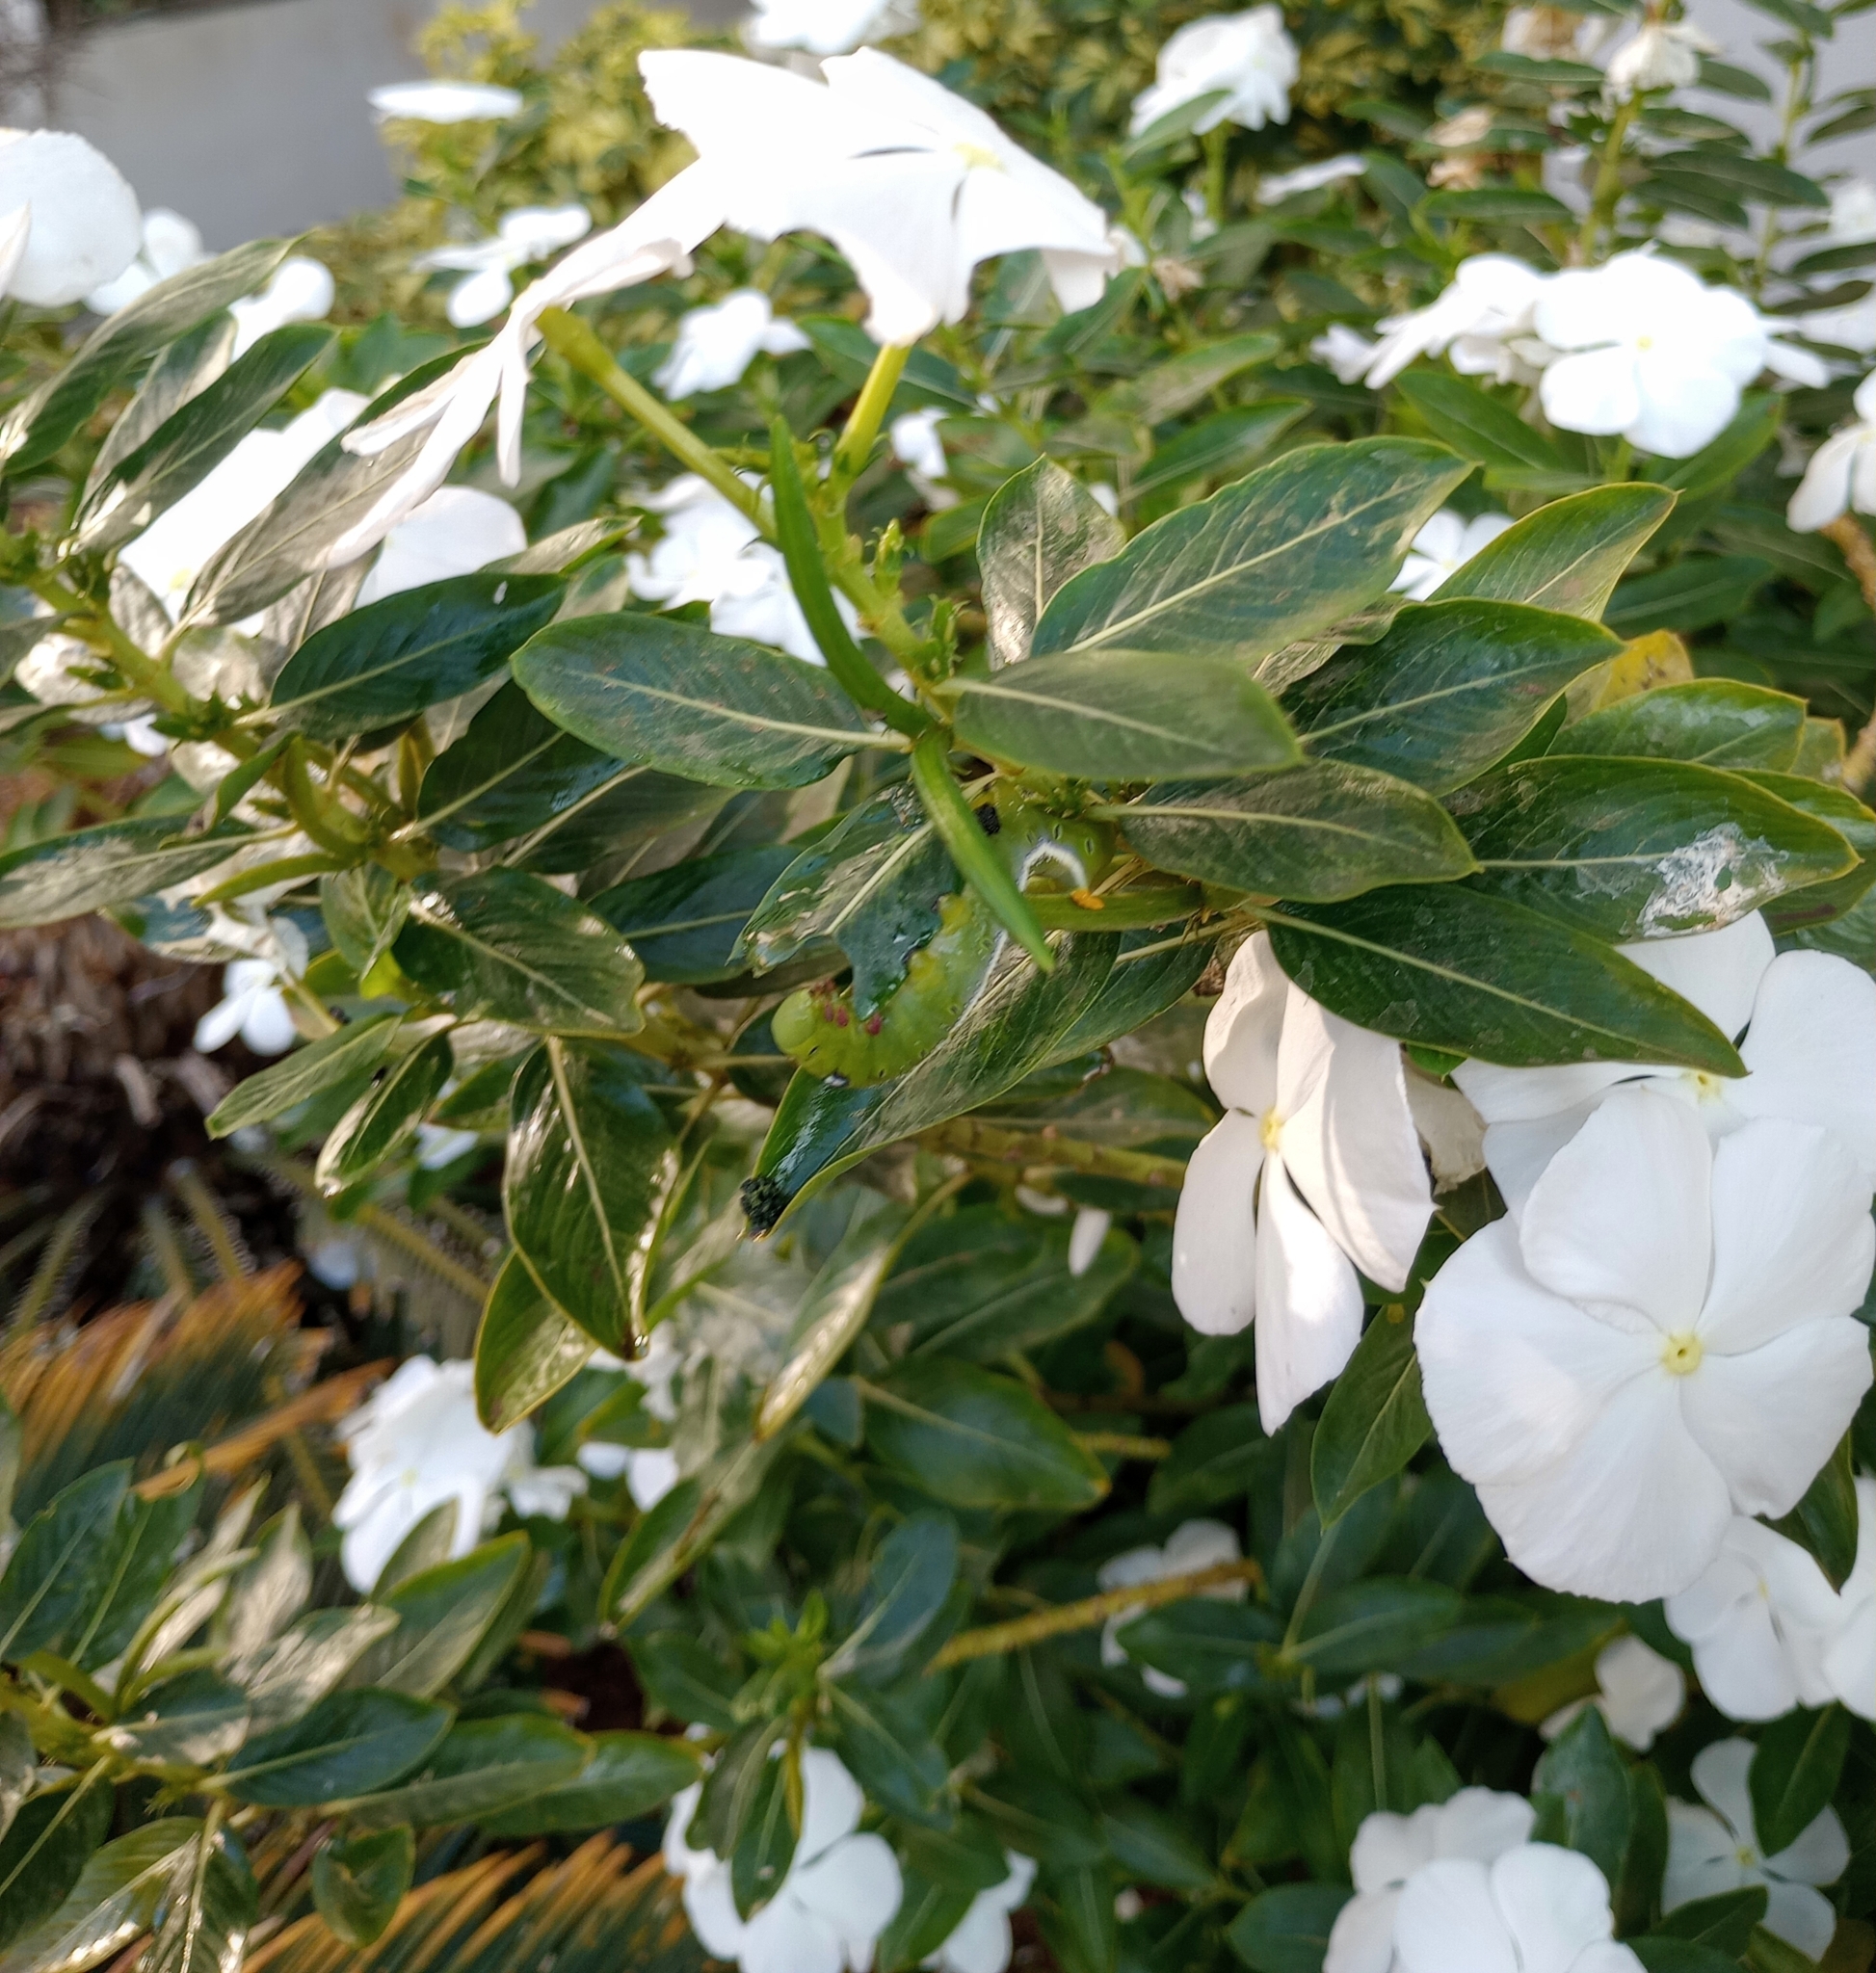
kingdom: Animalia
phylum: Arthropoda
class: Insecta
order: Lepidoptera
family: Sphingidae
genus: Daphnis
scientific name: Daphnis nerii
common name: Oleander hawk-moth
